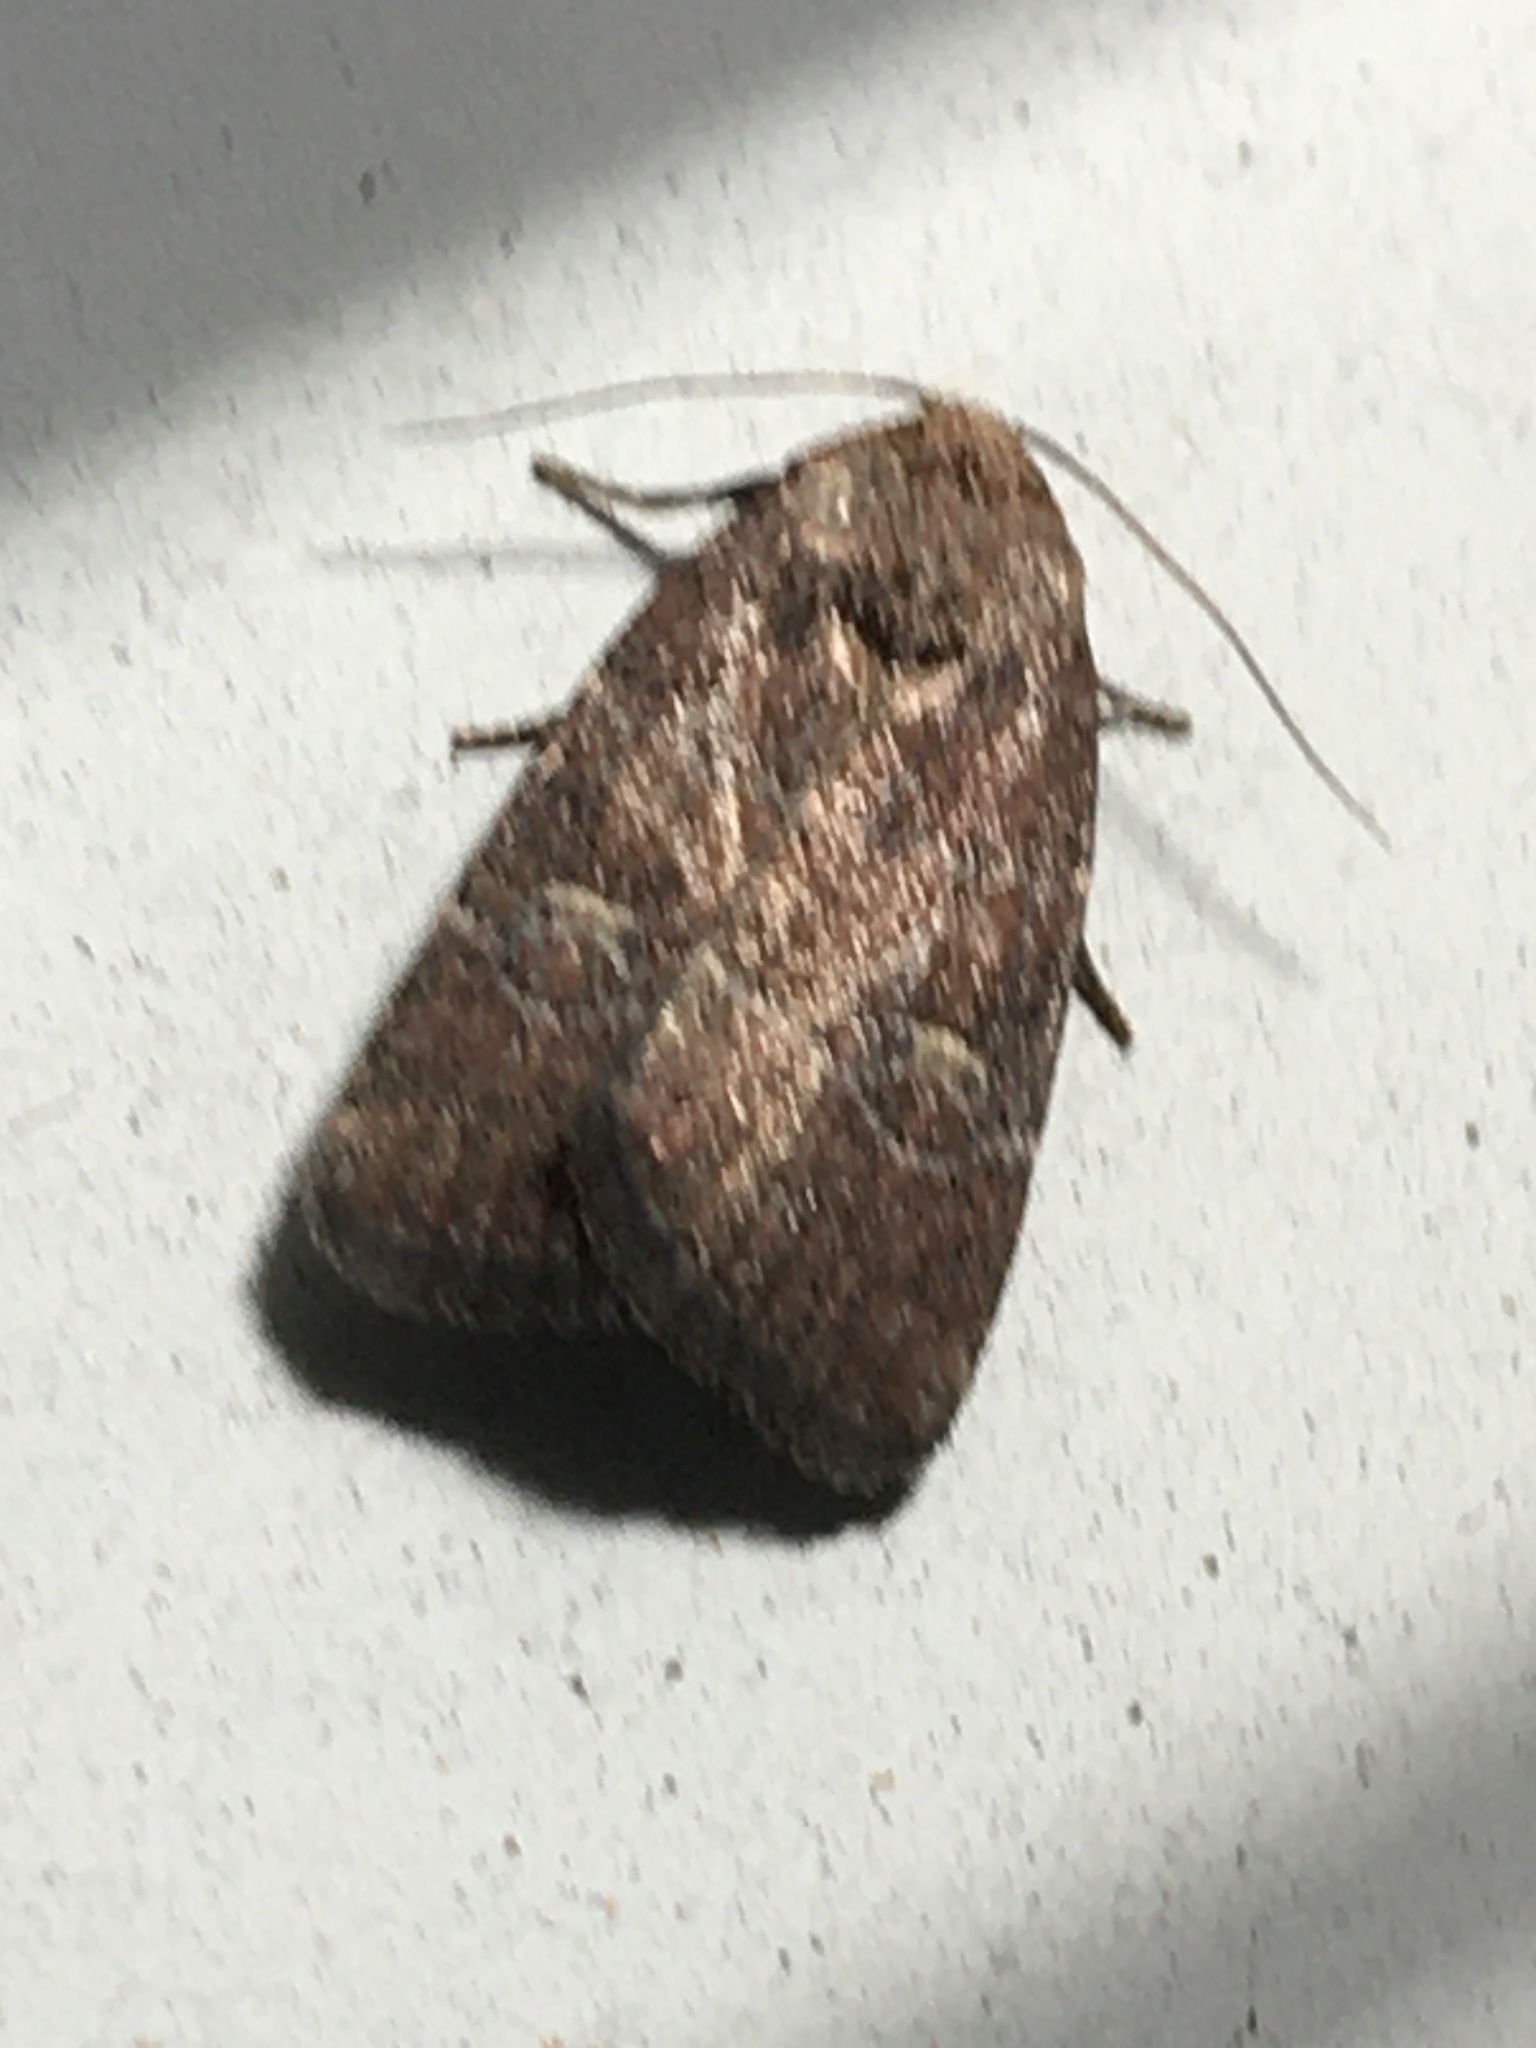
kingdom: Animalia
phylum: Arthropoda
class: Insecta
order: Lepidoptera
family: Noctuidae
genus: Elaphria
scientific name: Elaphria grata
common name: Grateful midget moth
